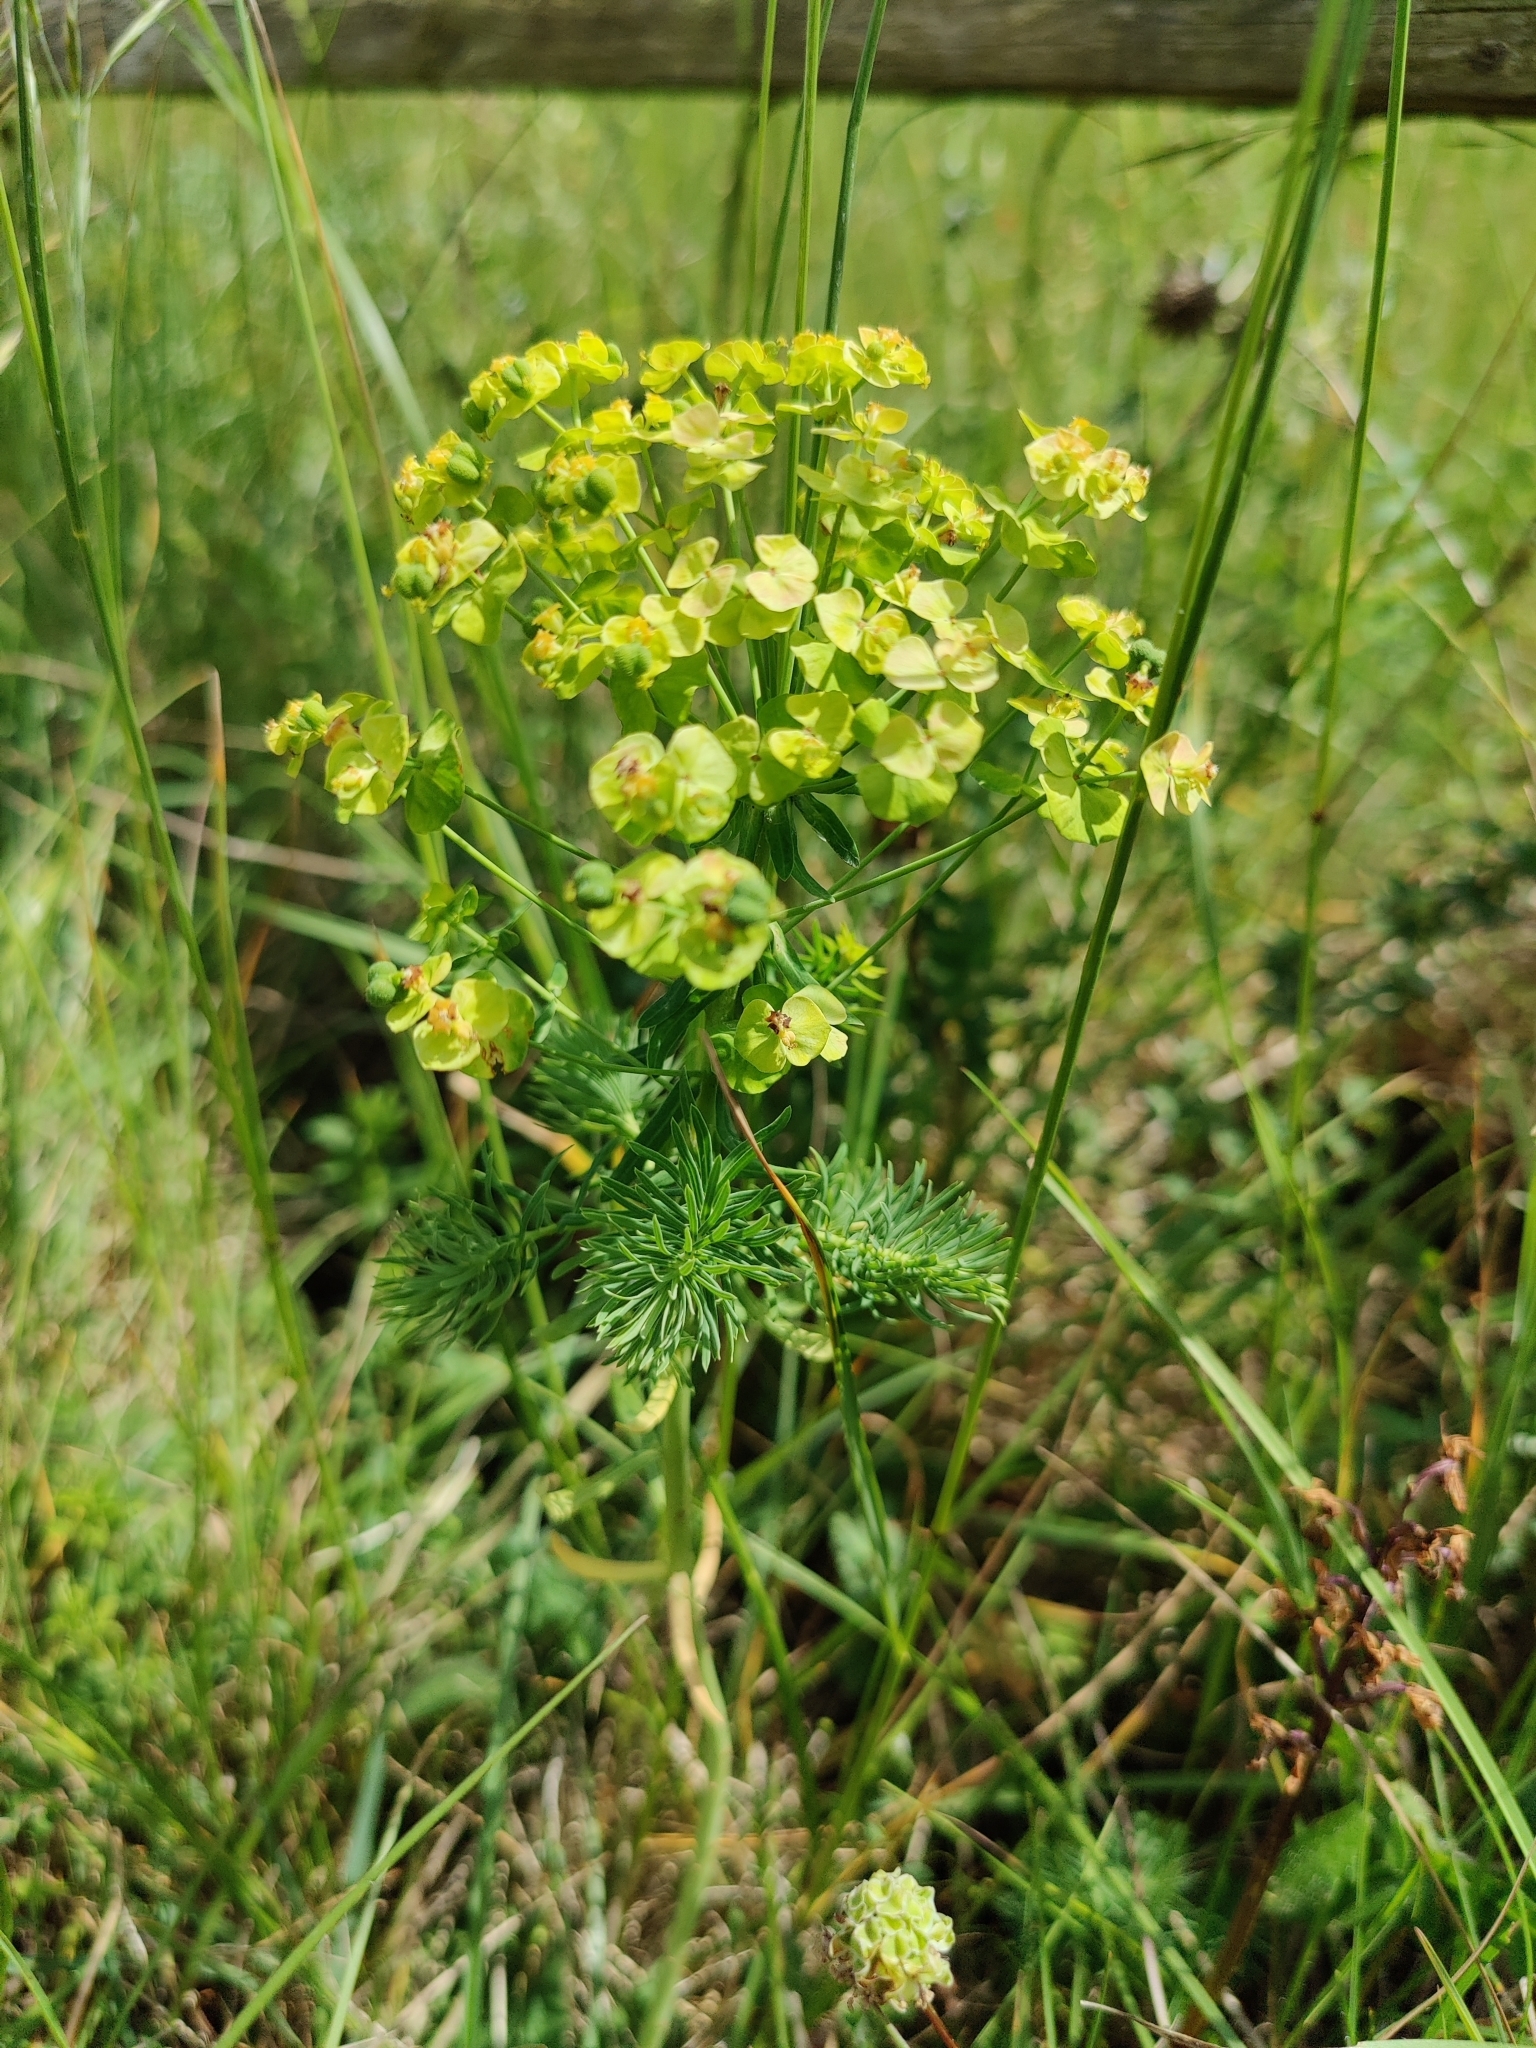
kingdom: Plantae
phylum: Tracheophyta
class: Magnoliopsida
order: Malpighiales
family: Euphorbiaceae
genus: Euphorbia
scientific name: Euphorbia cyparissias
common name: Cypress spurge
